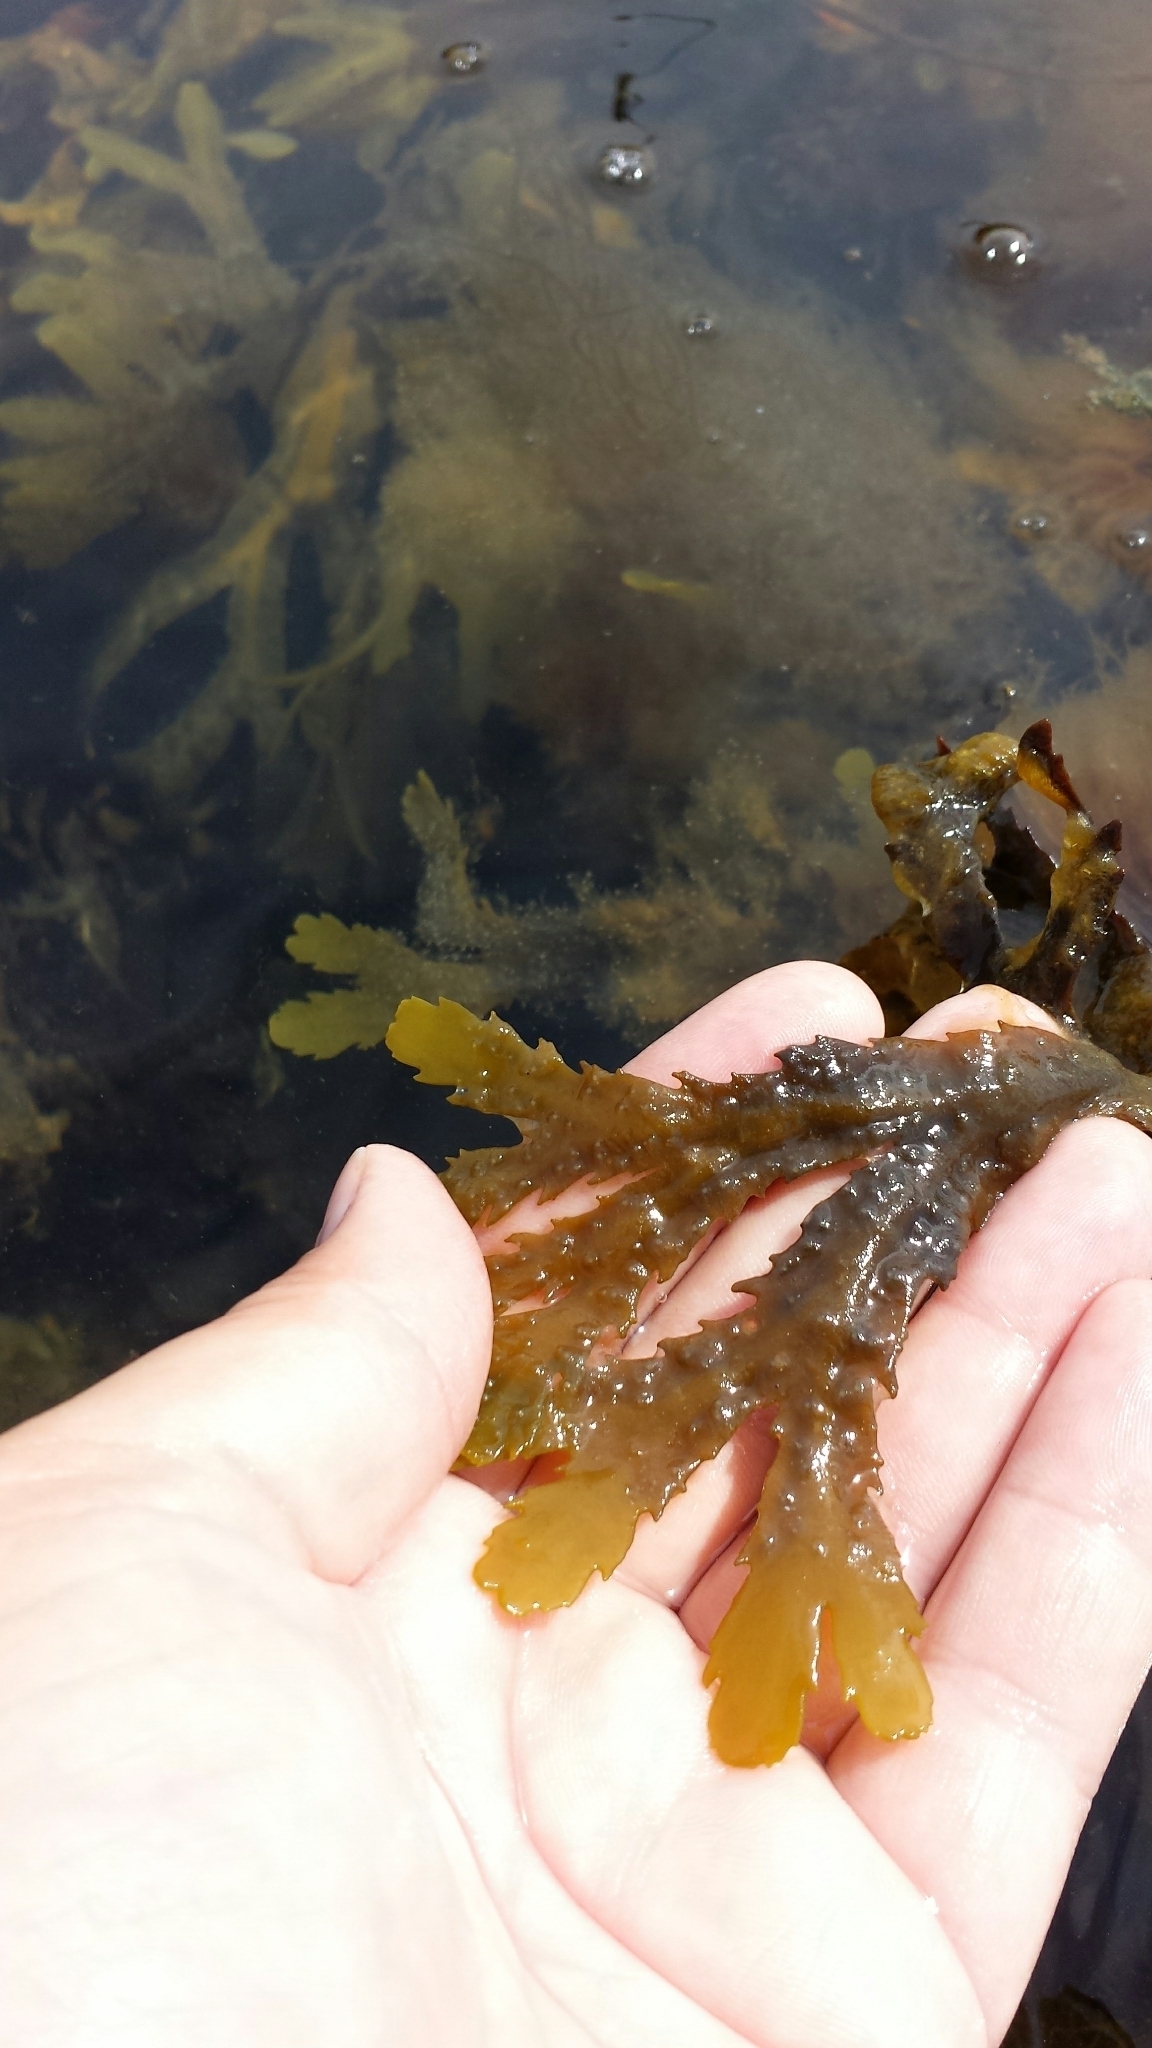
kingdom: Chromista
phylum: Ochrophyta
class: Phaeophyceae
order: Fucales
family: Fucaceae
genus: Fucus
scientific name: Fucus serratus
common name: Toothed wrack
